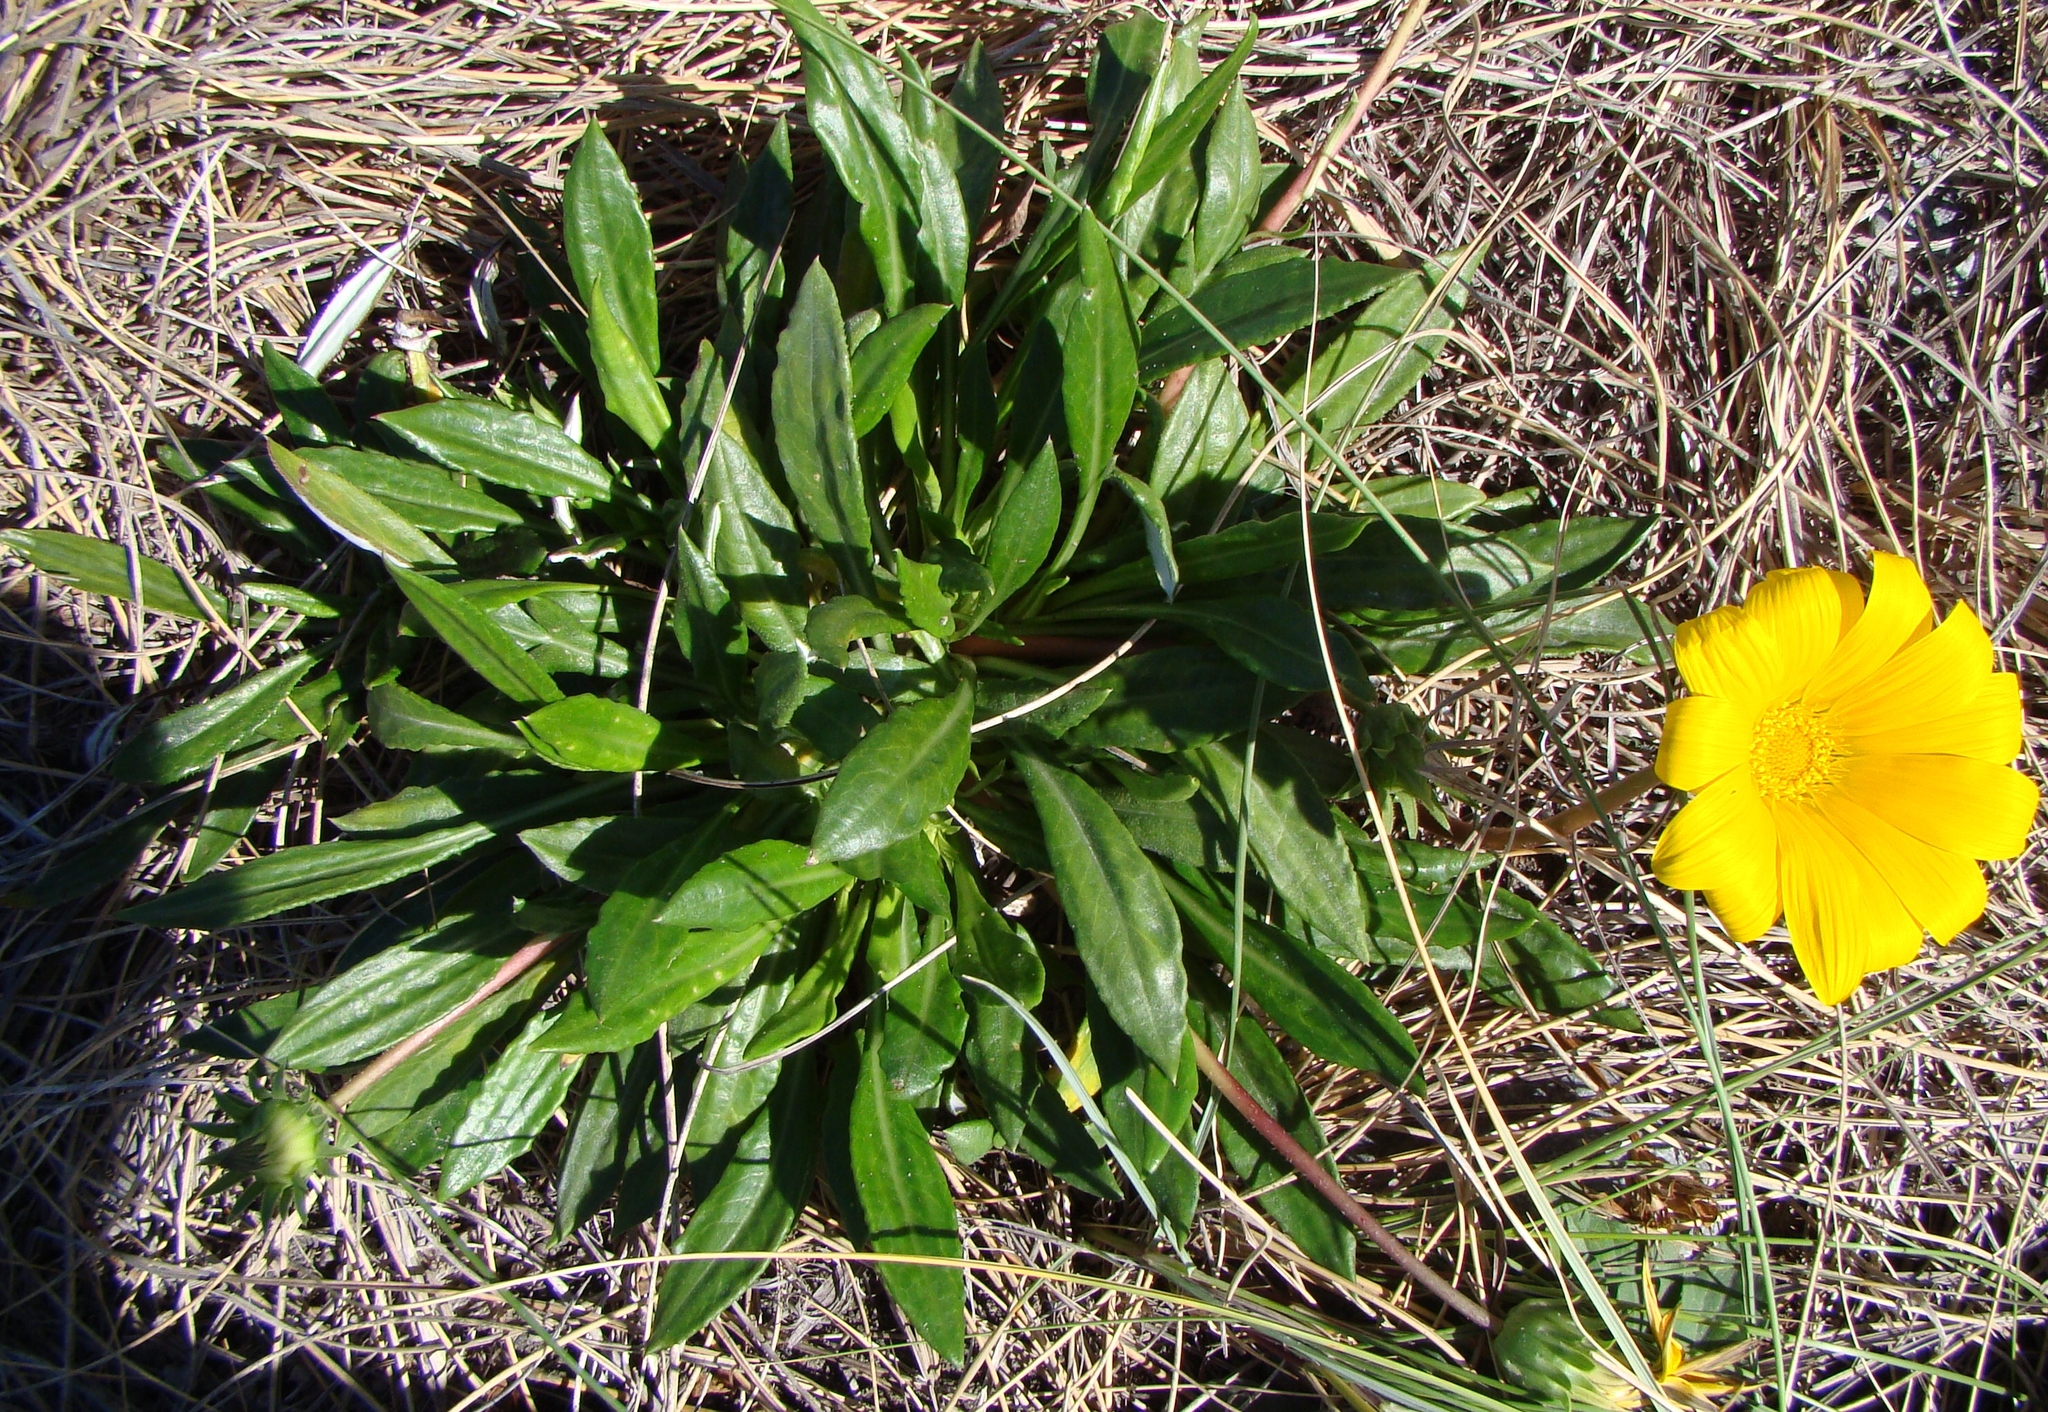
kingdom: Plantae
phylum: Tracheophyta
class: Magnoliopsida
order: Asterales
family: Asteraceae
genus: Gazania
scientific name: Gazania rigens
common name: Treasureflower
